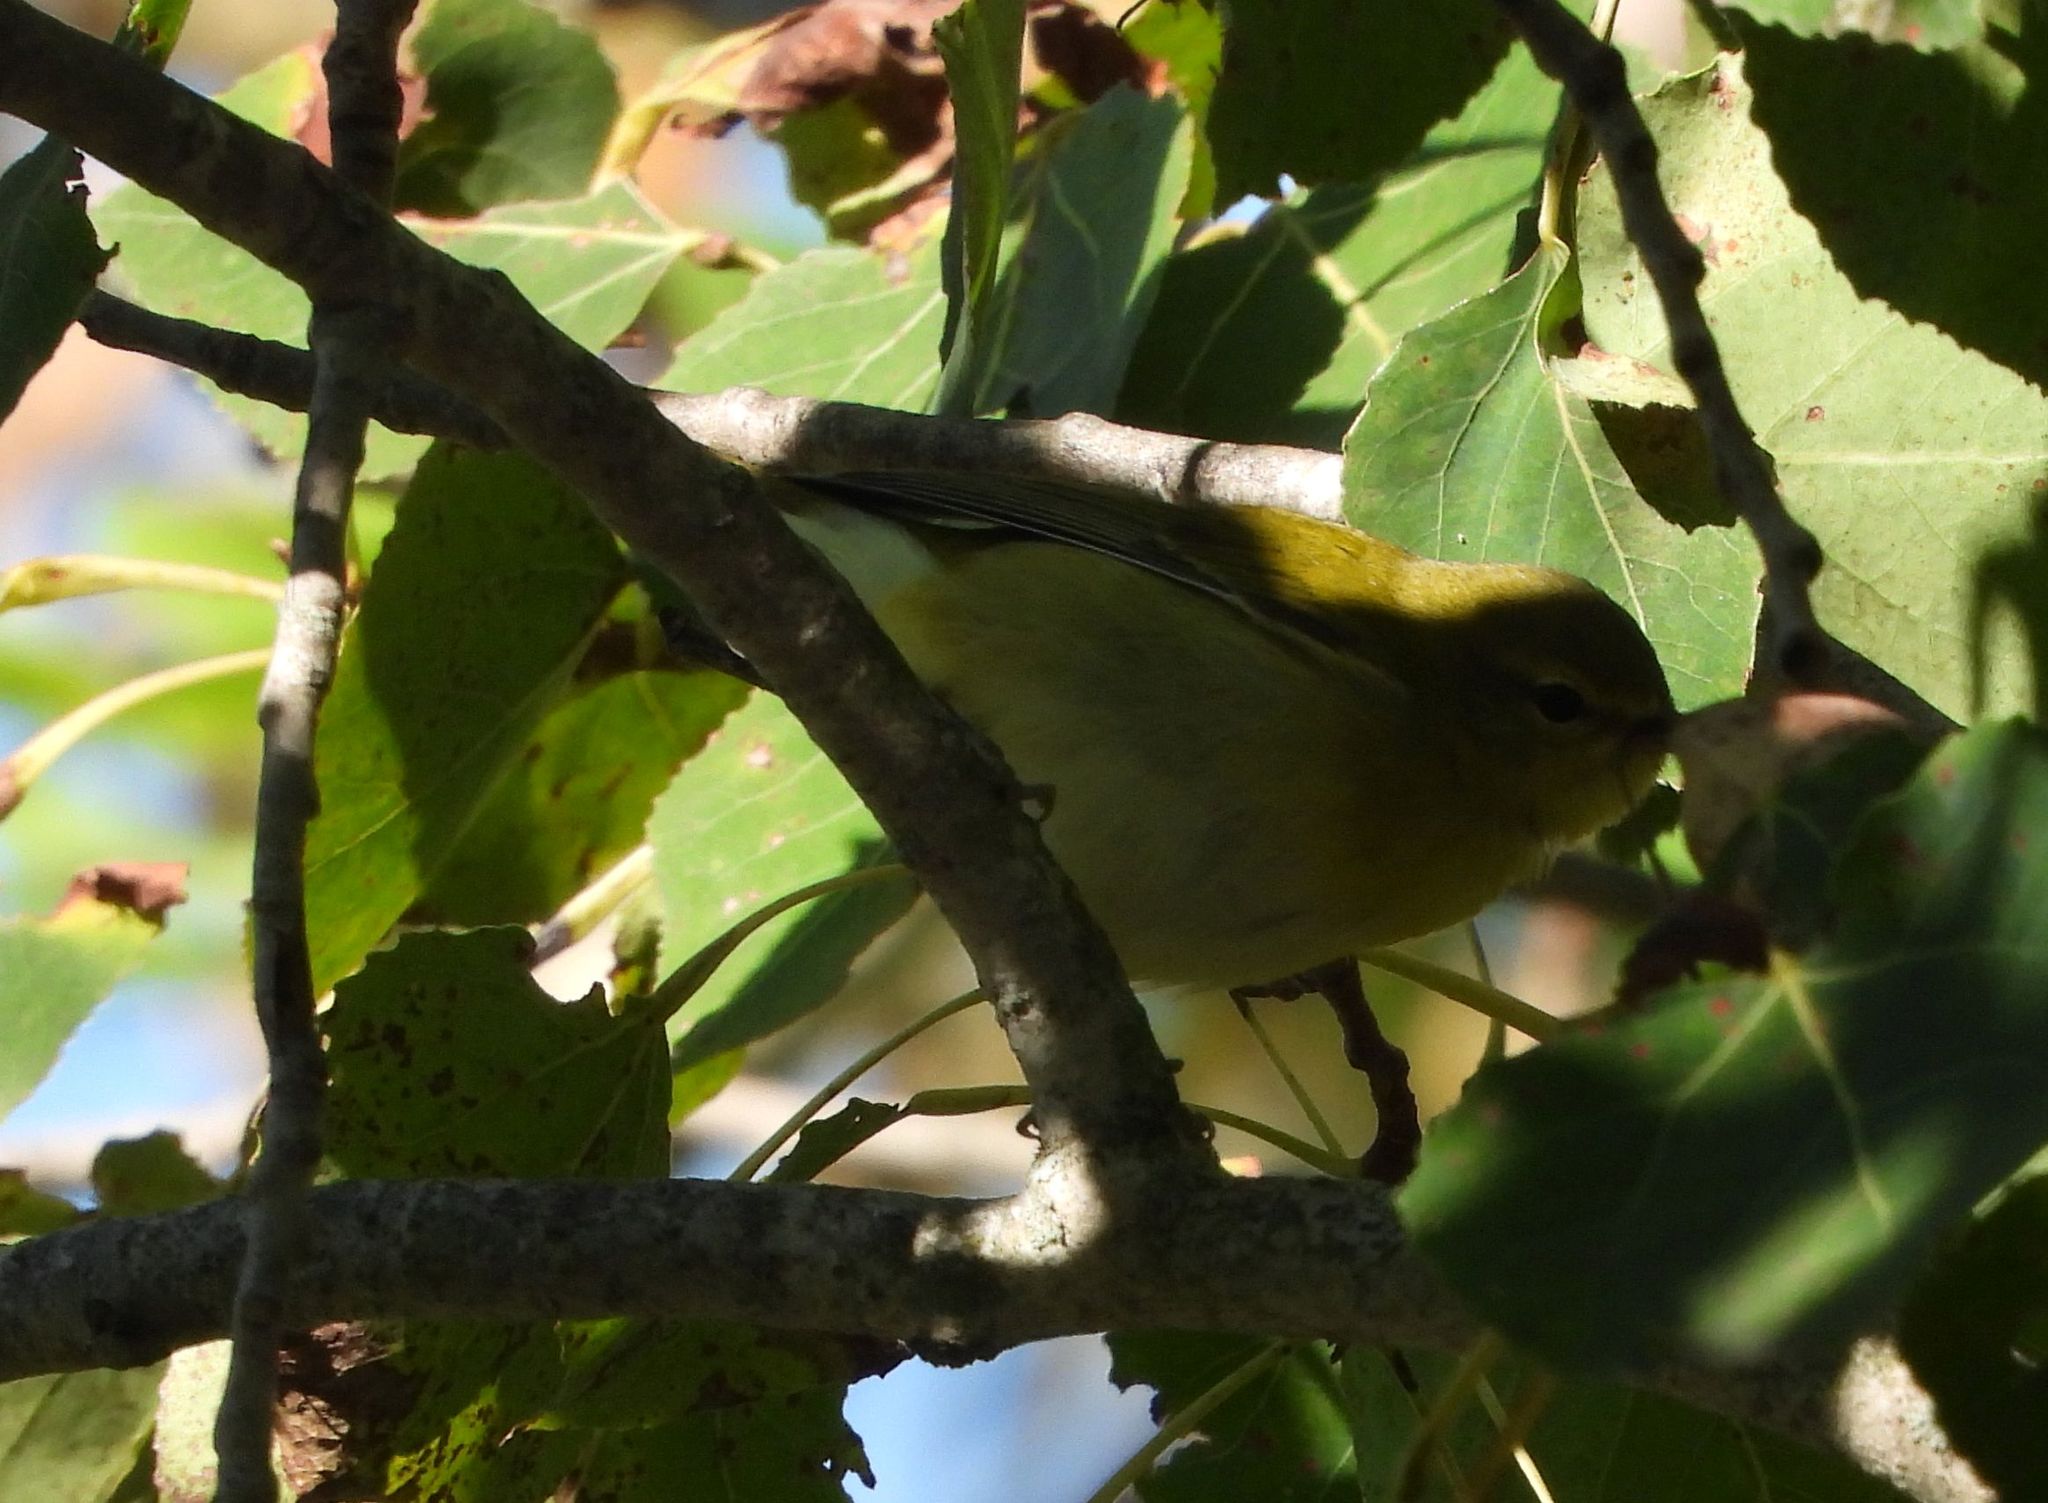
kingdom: Animalia
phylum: Chordata
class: Aves
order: Passeriformes
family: Parulidae
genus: Leiothlypis
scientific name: Leiothlypis peregrina
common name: Tennessee warbler
